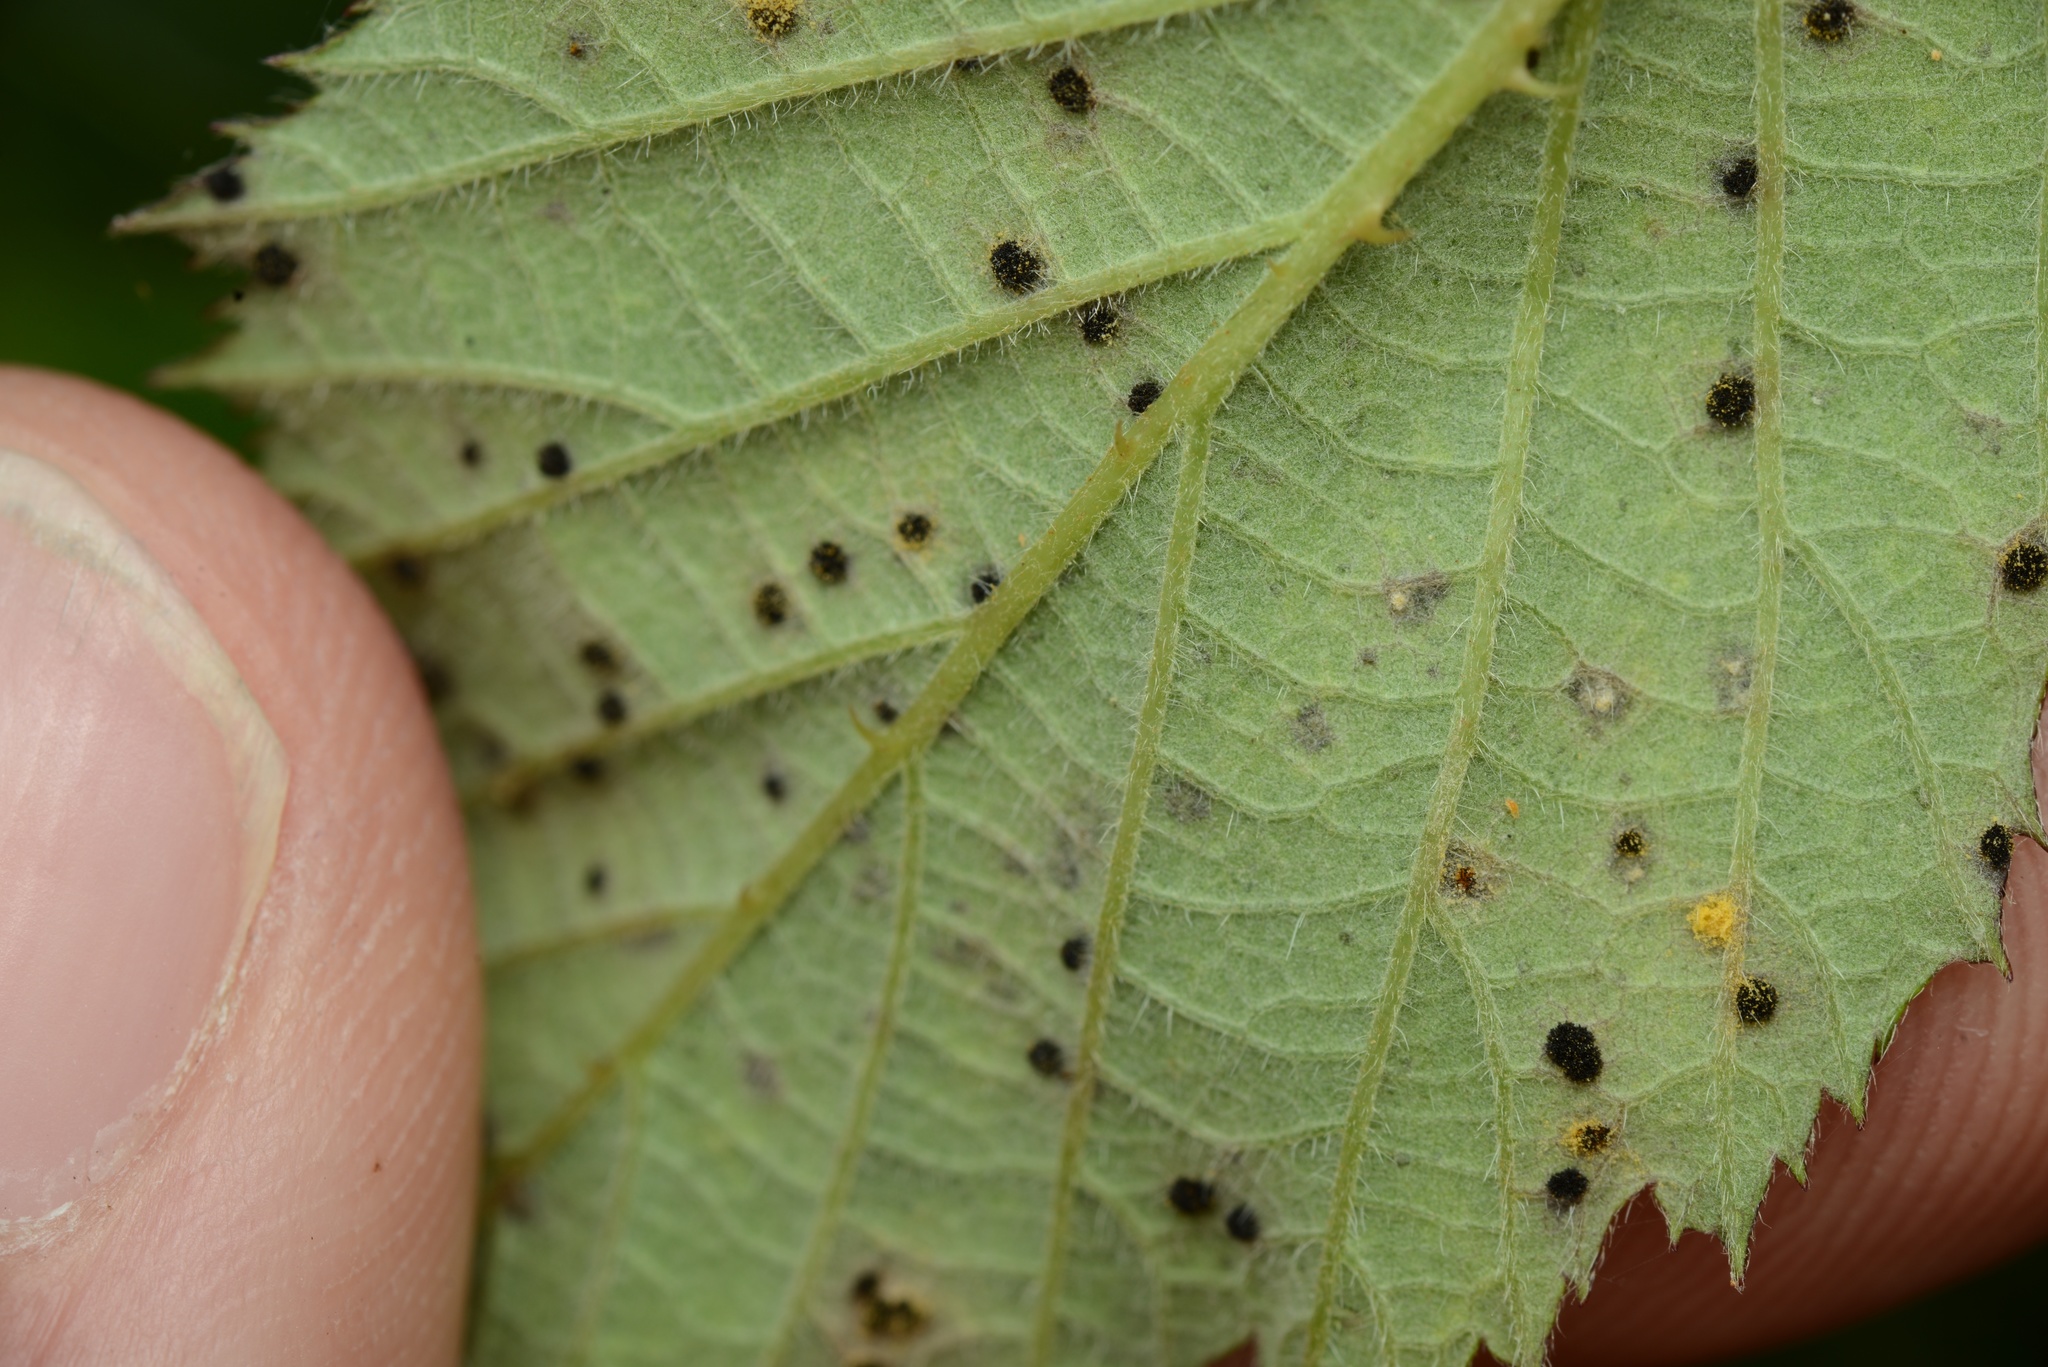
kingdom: Fungi
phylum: Basidiomycota
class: Pucciniomycetes
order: Pucciniales
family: Phragmidiaceae
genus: Phragmidium
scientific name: Phragmidium violaceum
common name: Violet bramble rust
